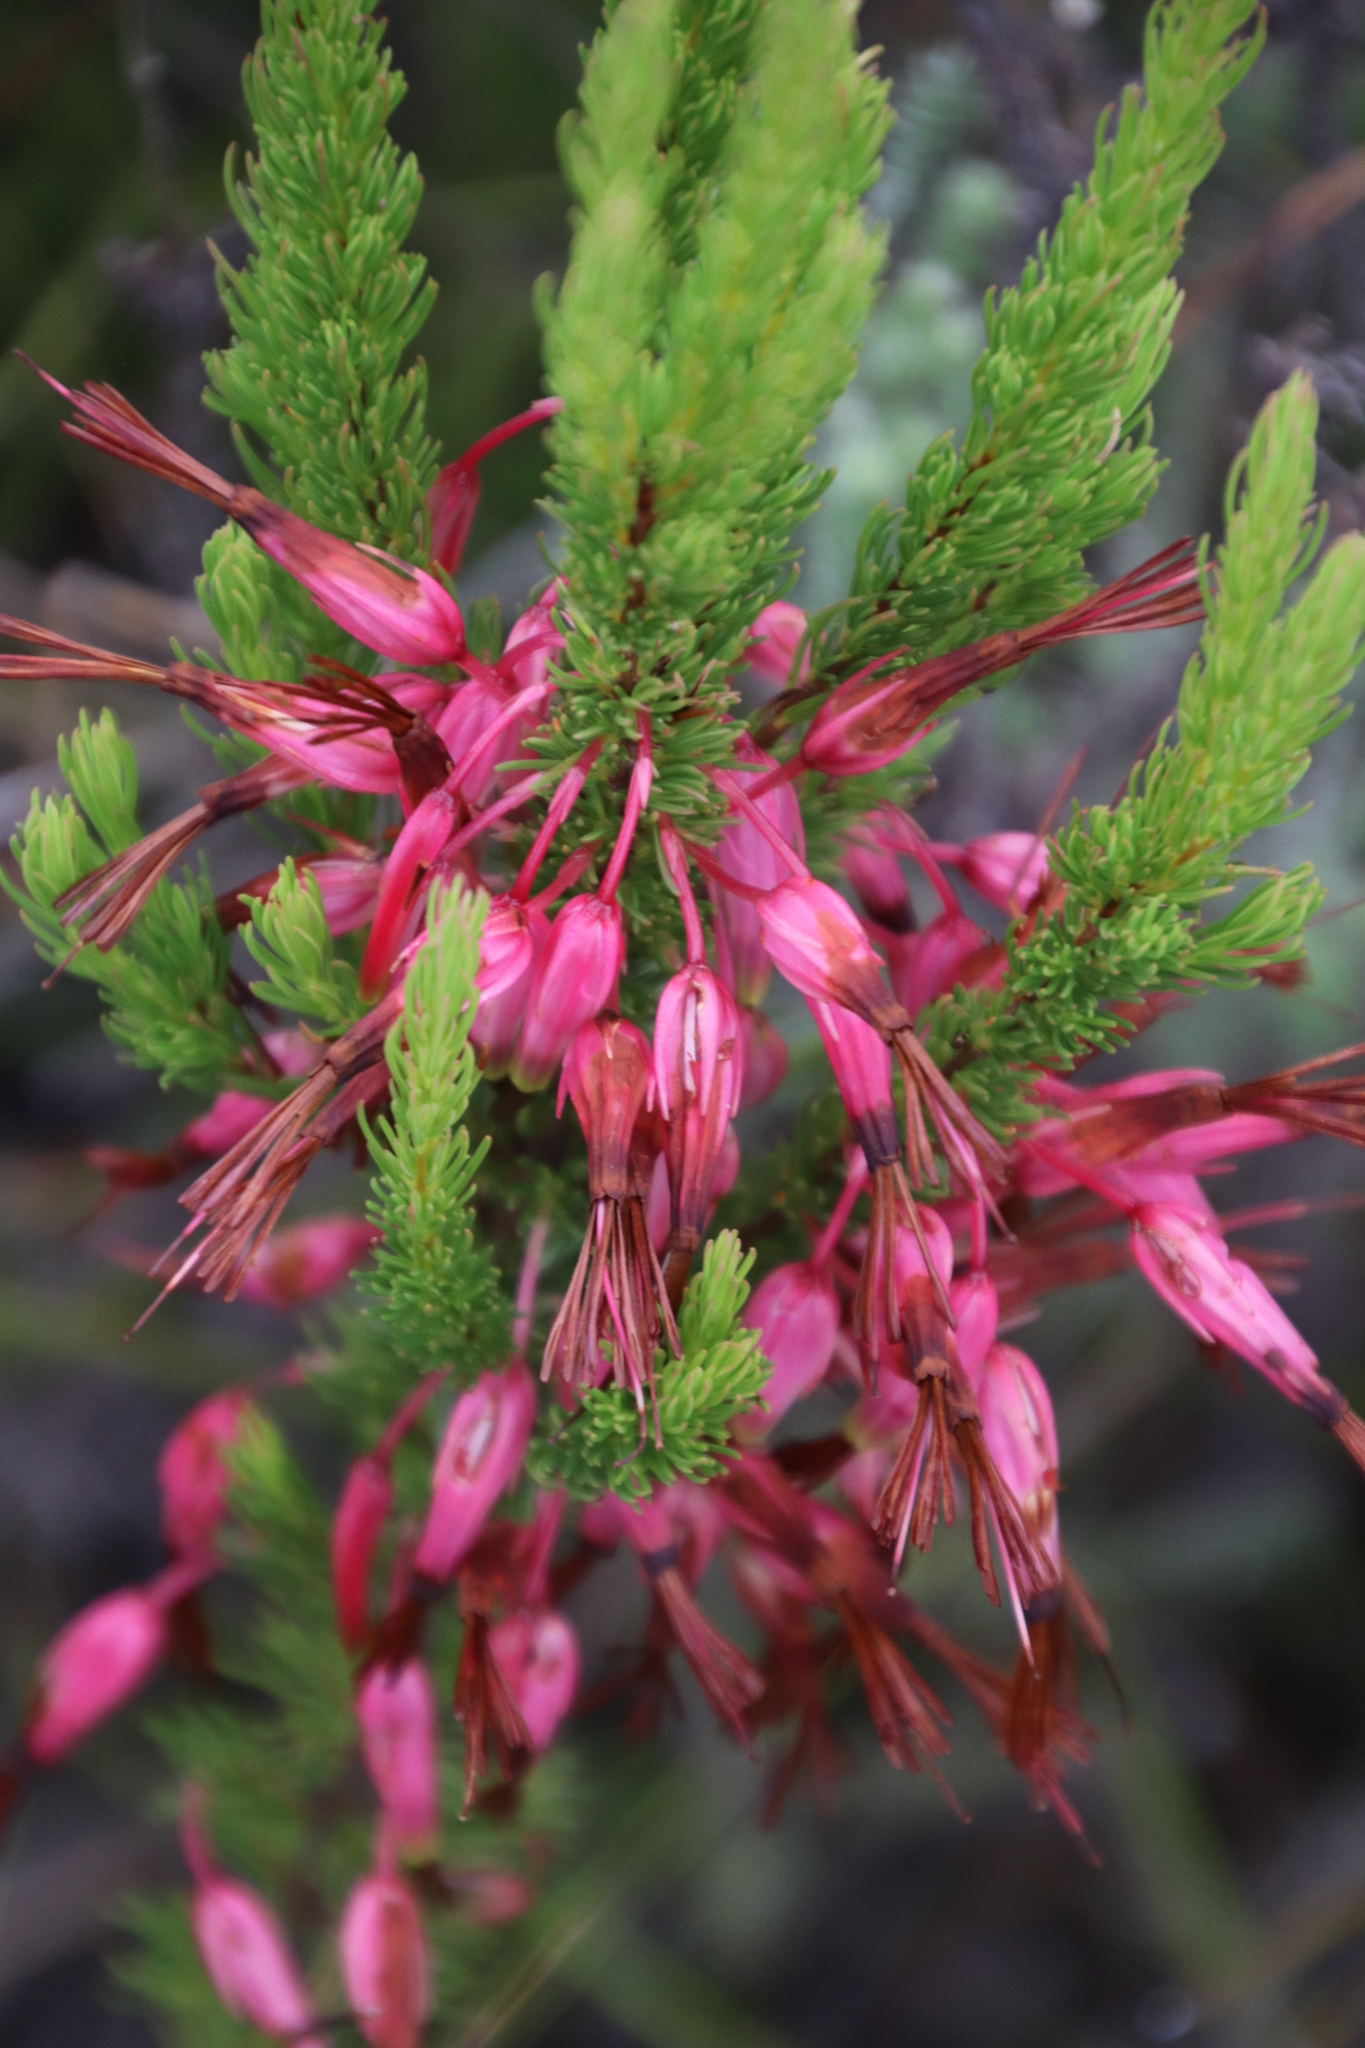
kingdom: Plantae
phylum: Tracheophyta
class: Magnoliopsida
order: Ericales
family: Ericaceae
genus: Erica
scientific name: Erica plukenetii
